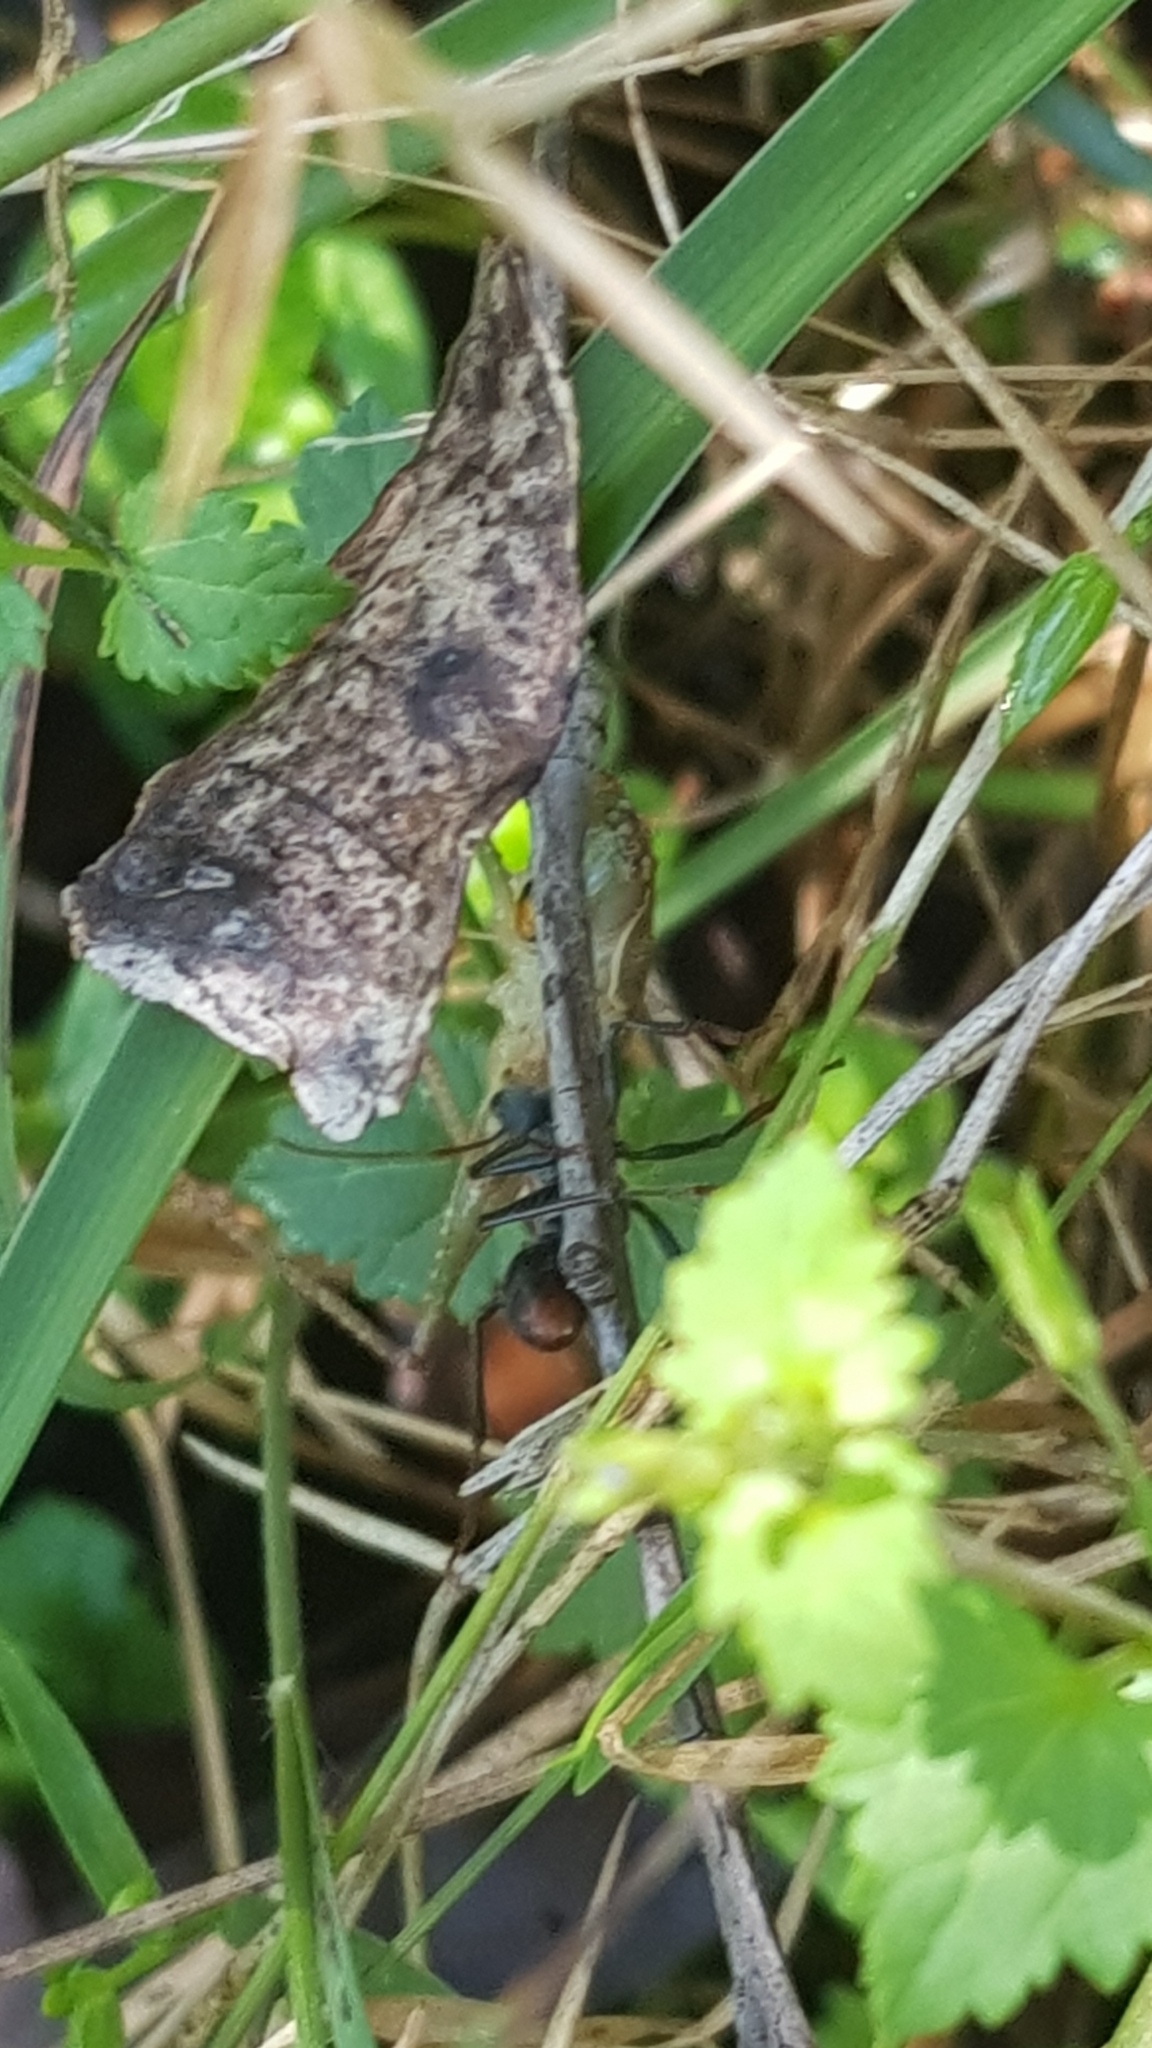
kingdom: Animalia
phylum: Arthropoda
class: Insecta
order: Hymenoptera
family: Formicidae
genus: Myrmecia
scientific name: Myrmecia tarsata
